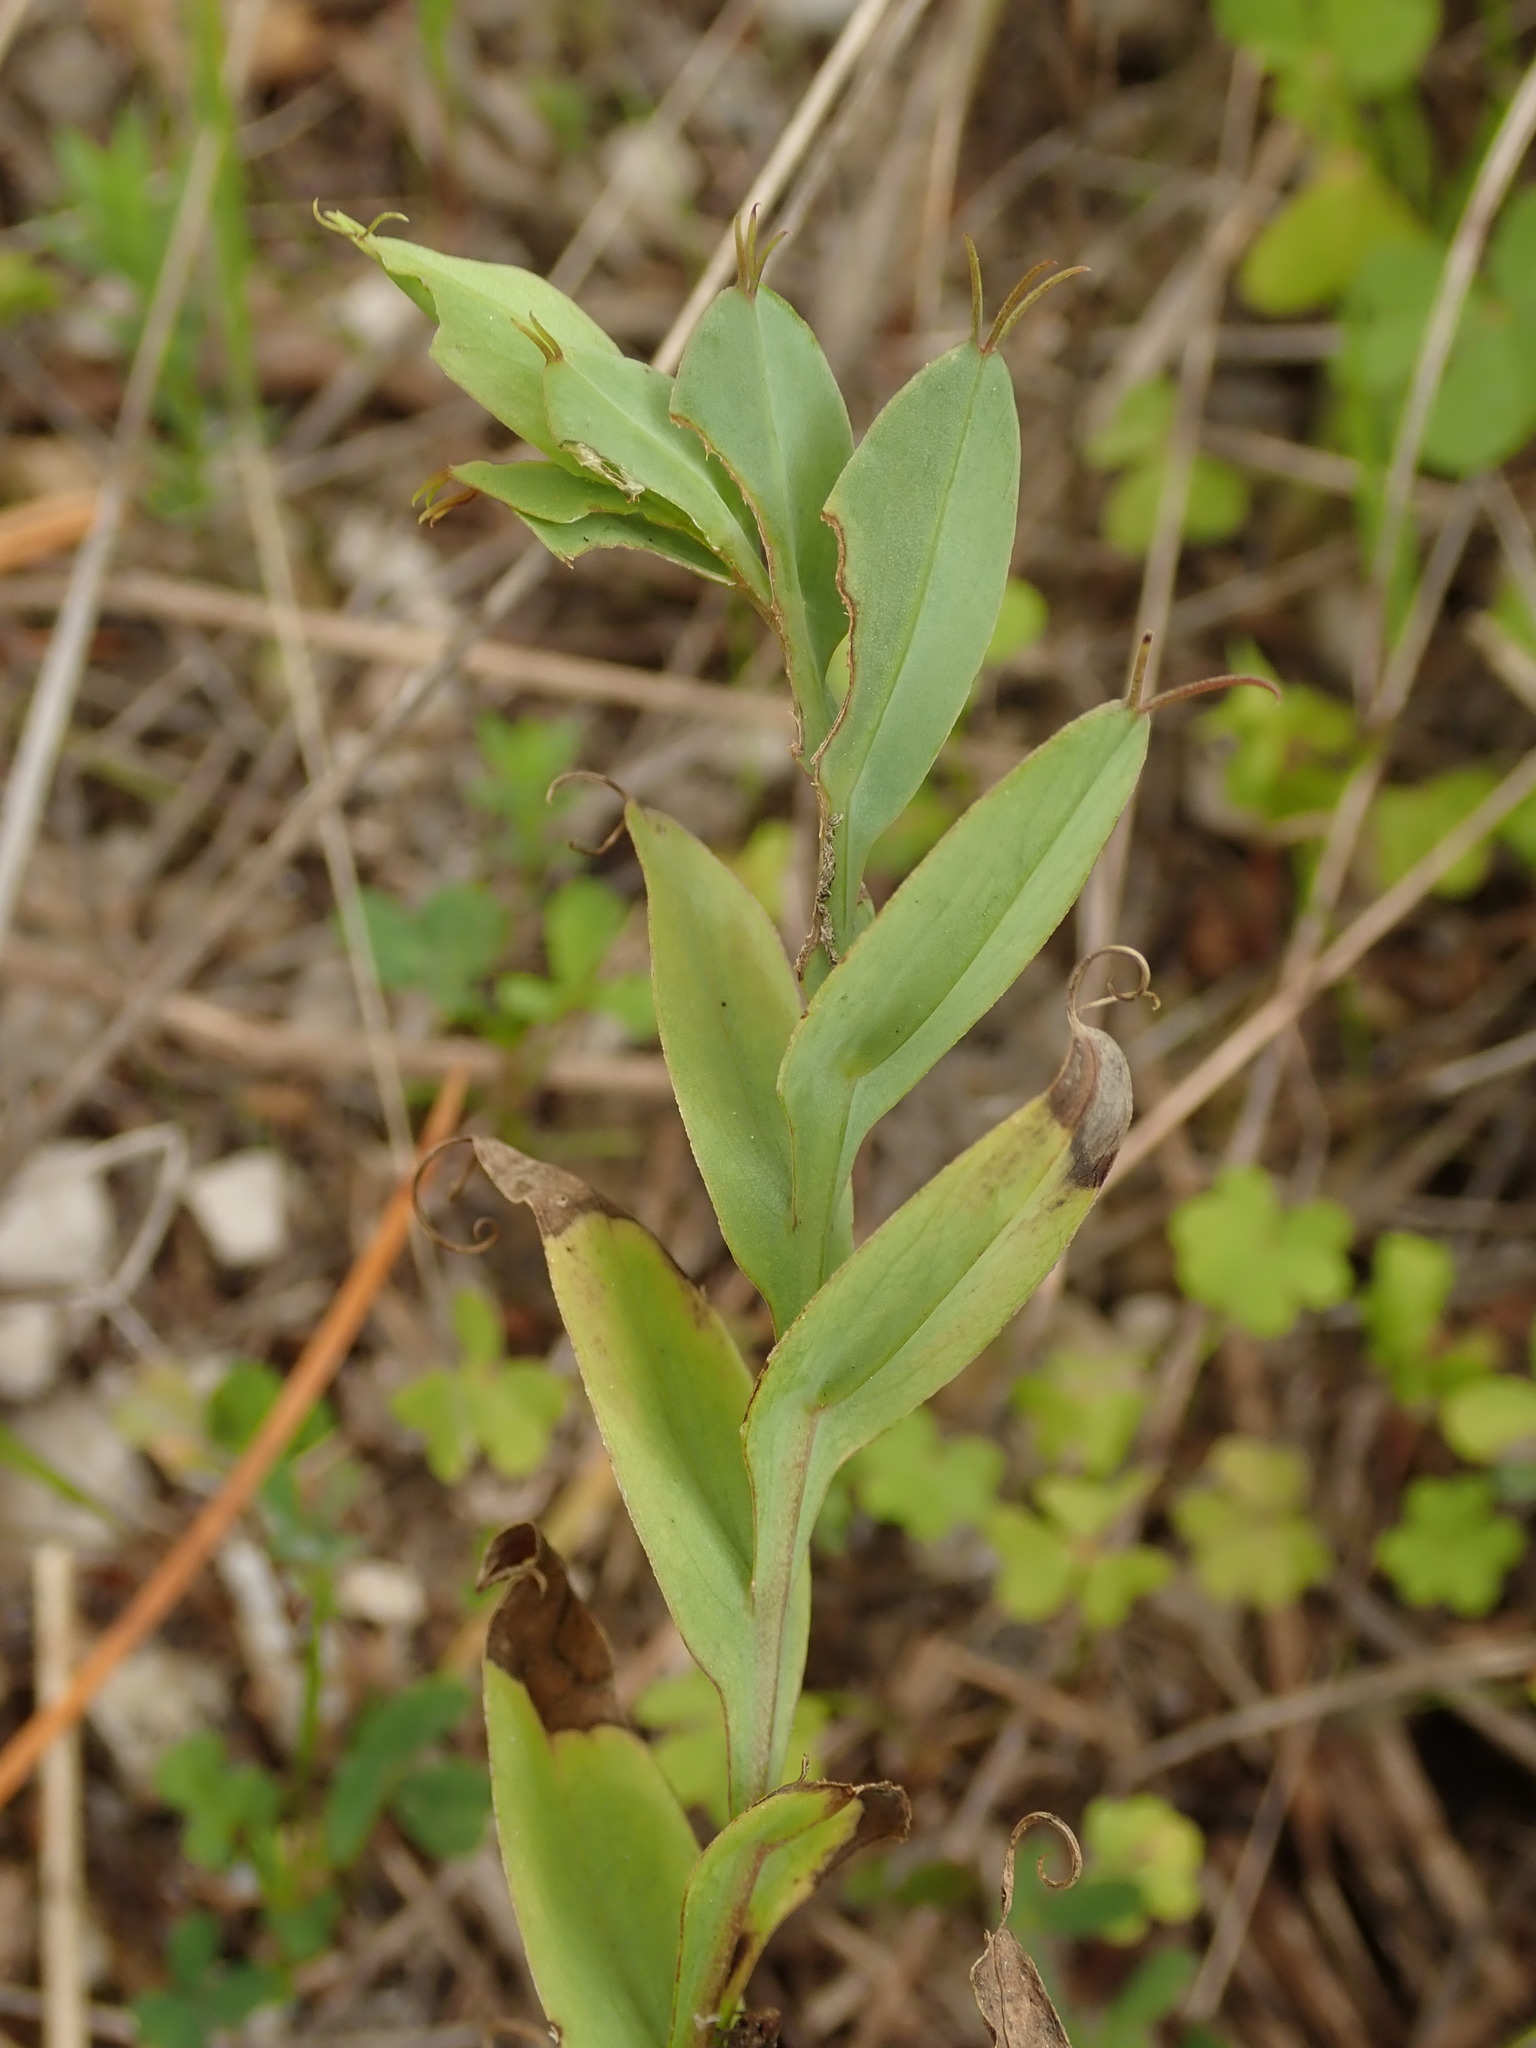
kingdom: Plantae
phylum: Tracheophyta
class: Magnoliopsida
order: Fabales
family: Fabaceae
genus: Lathyrus
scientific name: Lathyrus ochrus
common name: Winged vetchling
